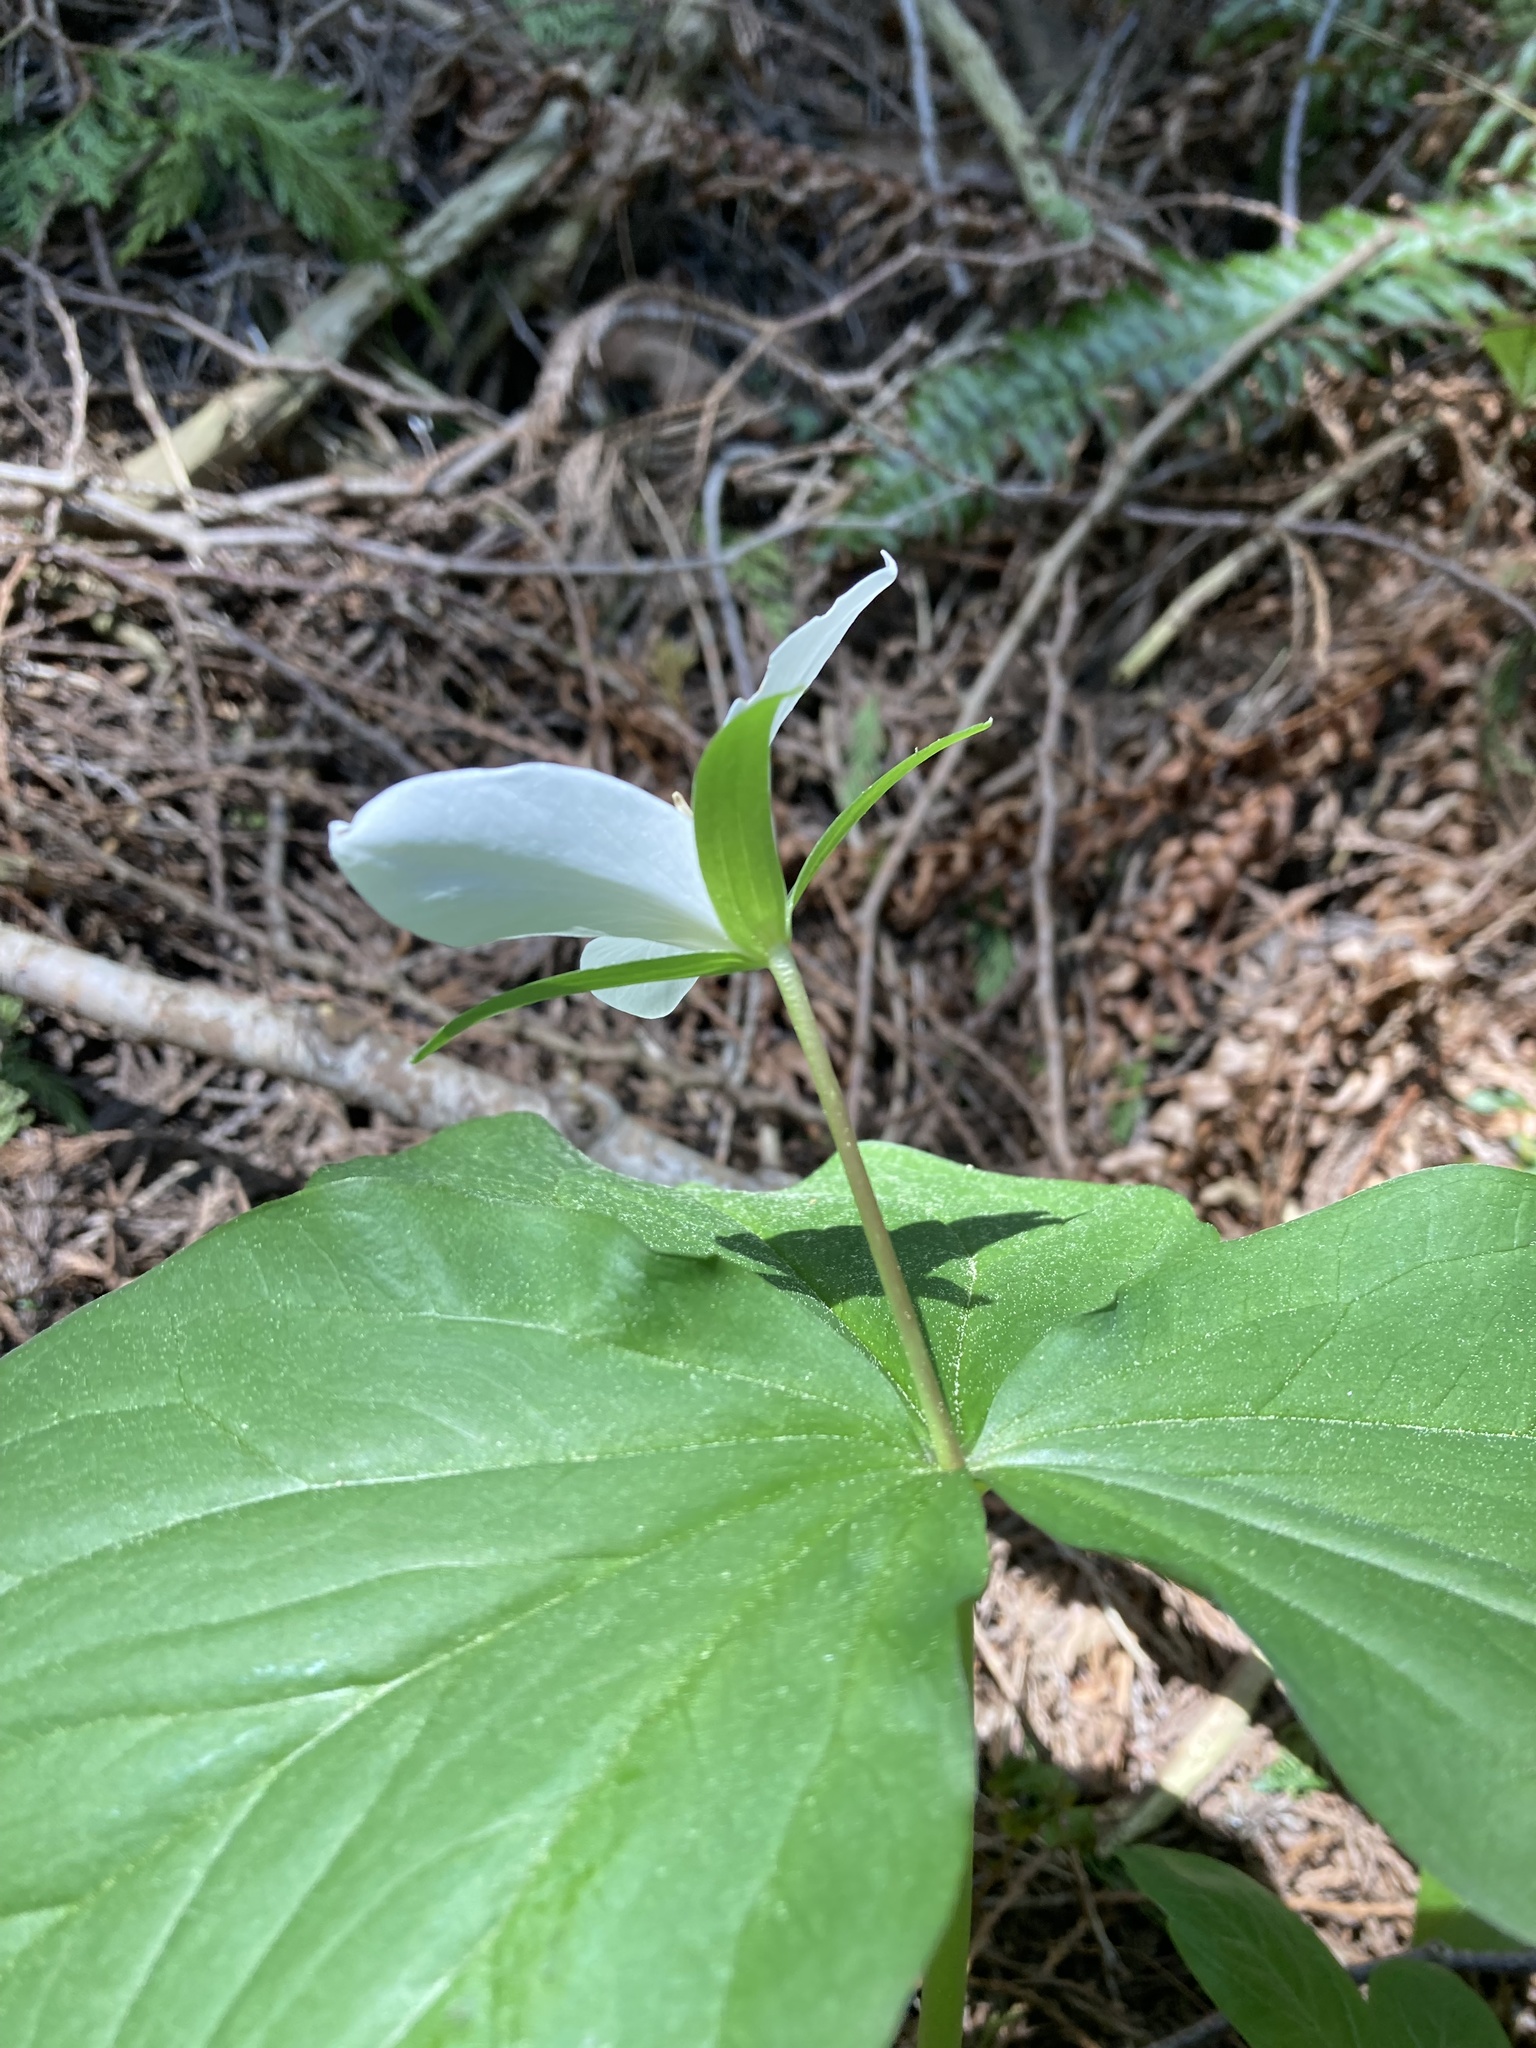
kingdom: Plantae
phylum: Tracheophyta
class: Liliopsida
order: Liliales
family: Melanthiaceae
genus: Trillium
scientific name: Trillium ovatum
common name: Pacific trillium
